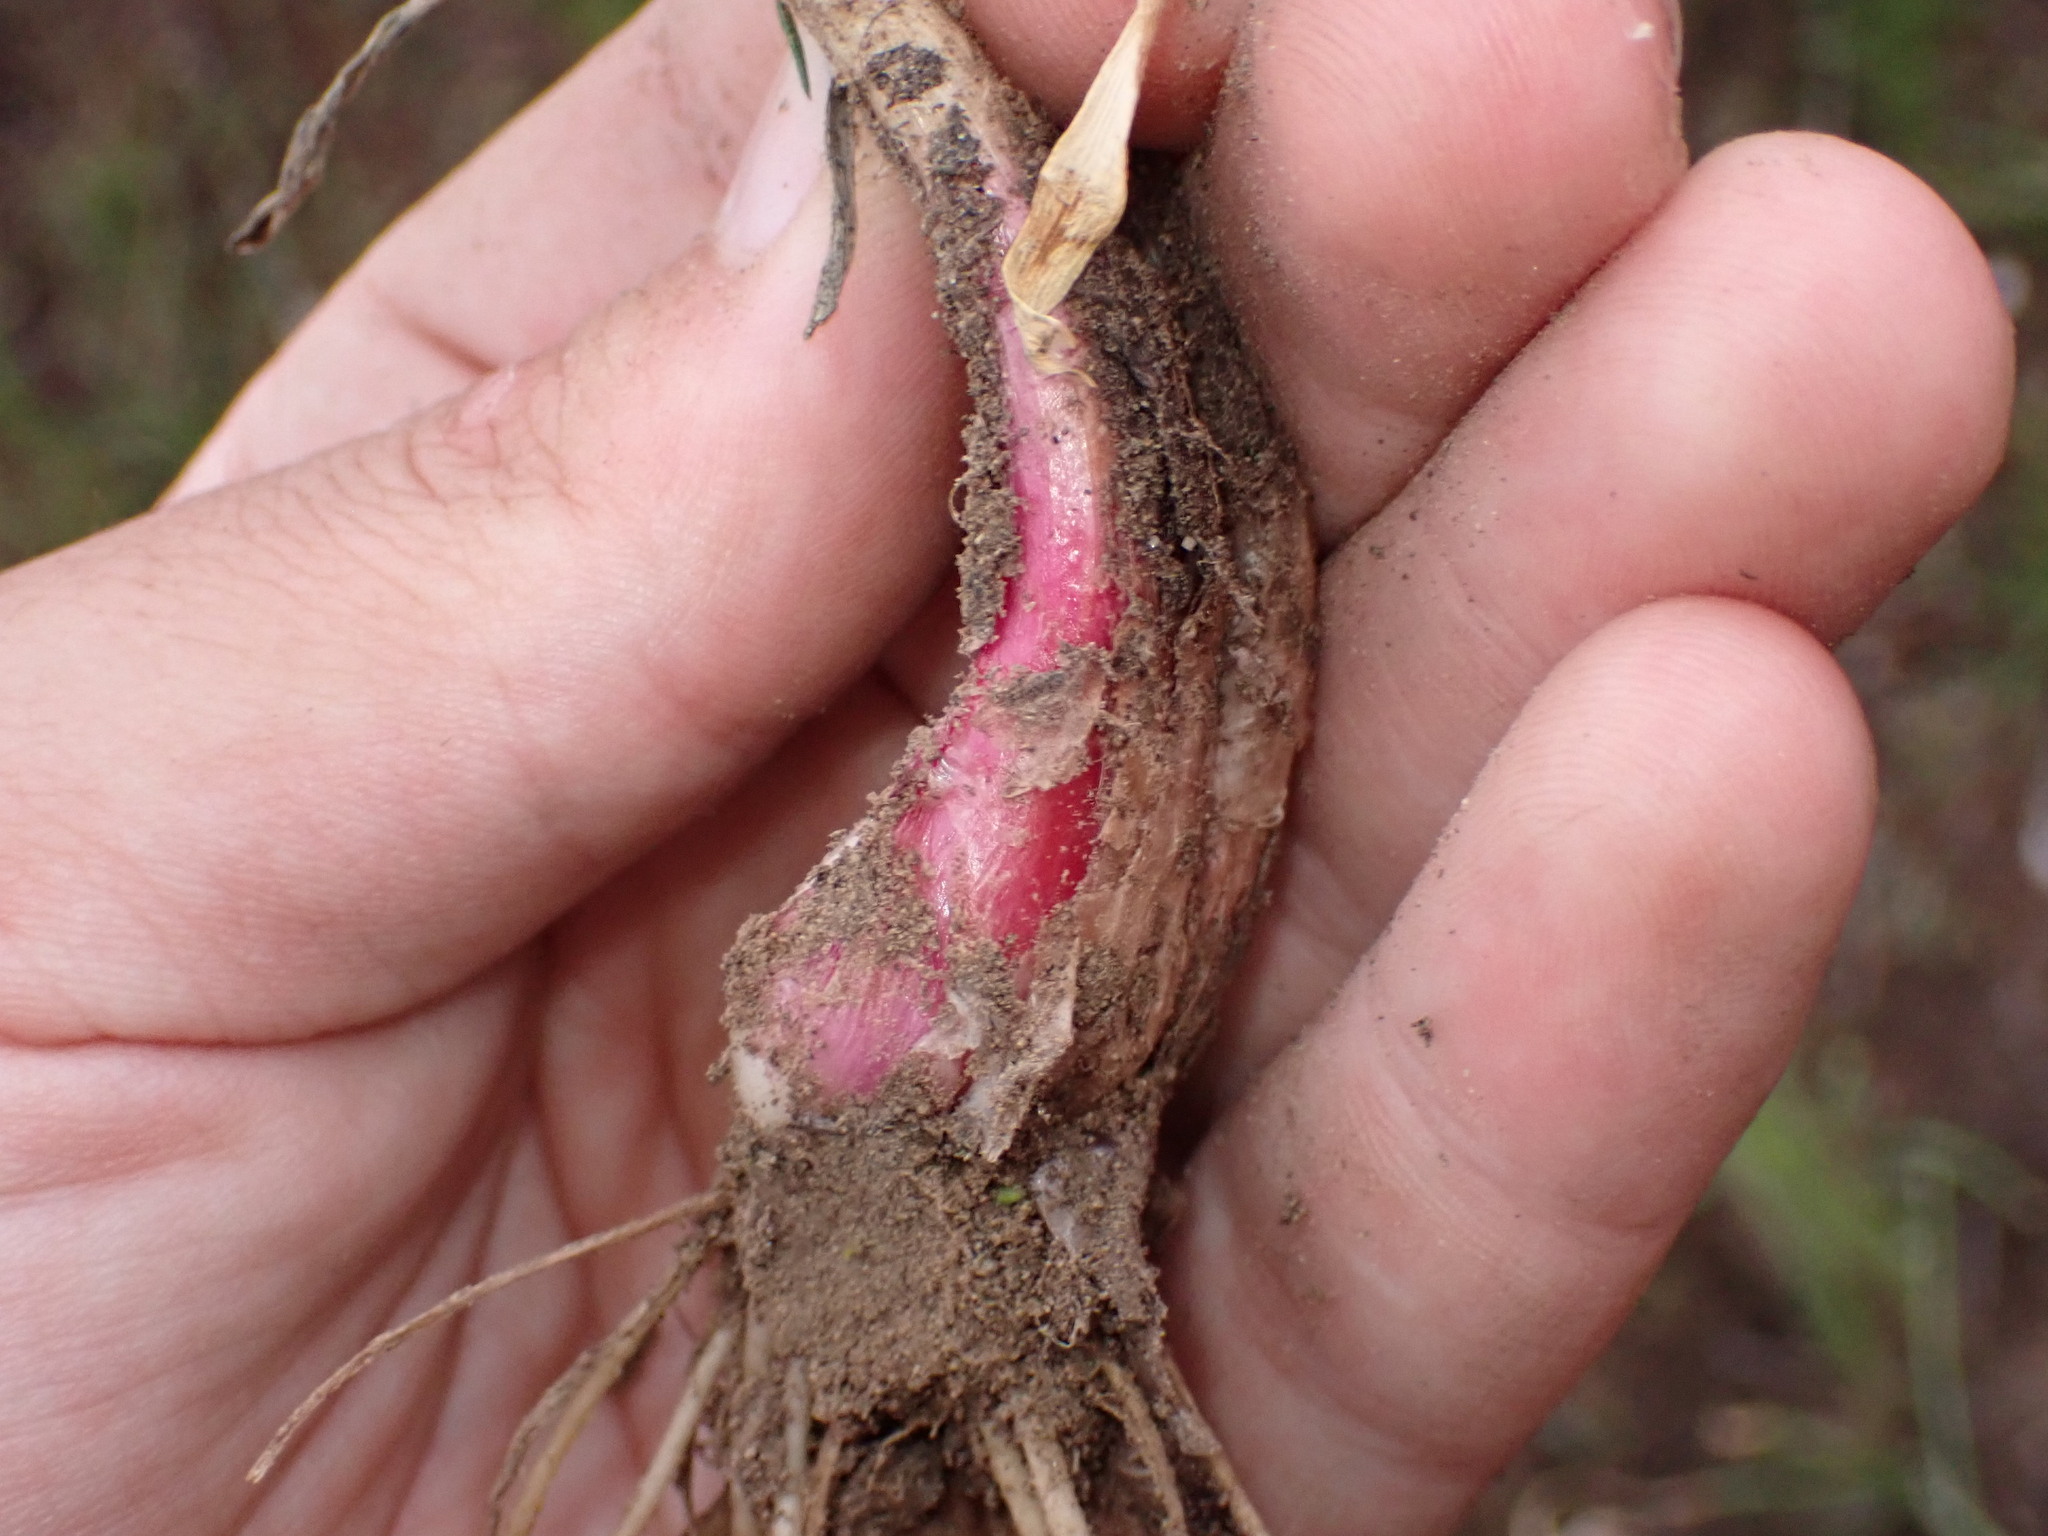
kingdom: Plantae
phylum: Tracheophyta
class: Liliopsida
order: Asparagales
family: Amaryllidaceae
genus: Allium
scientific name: Allium cernuum
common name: Nodding onion
